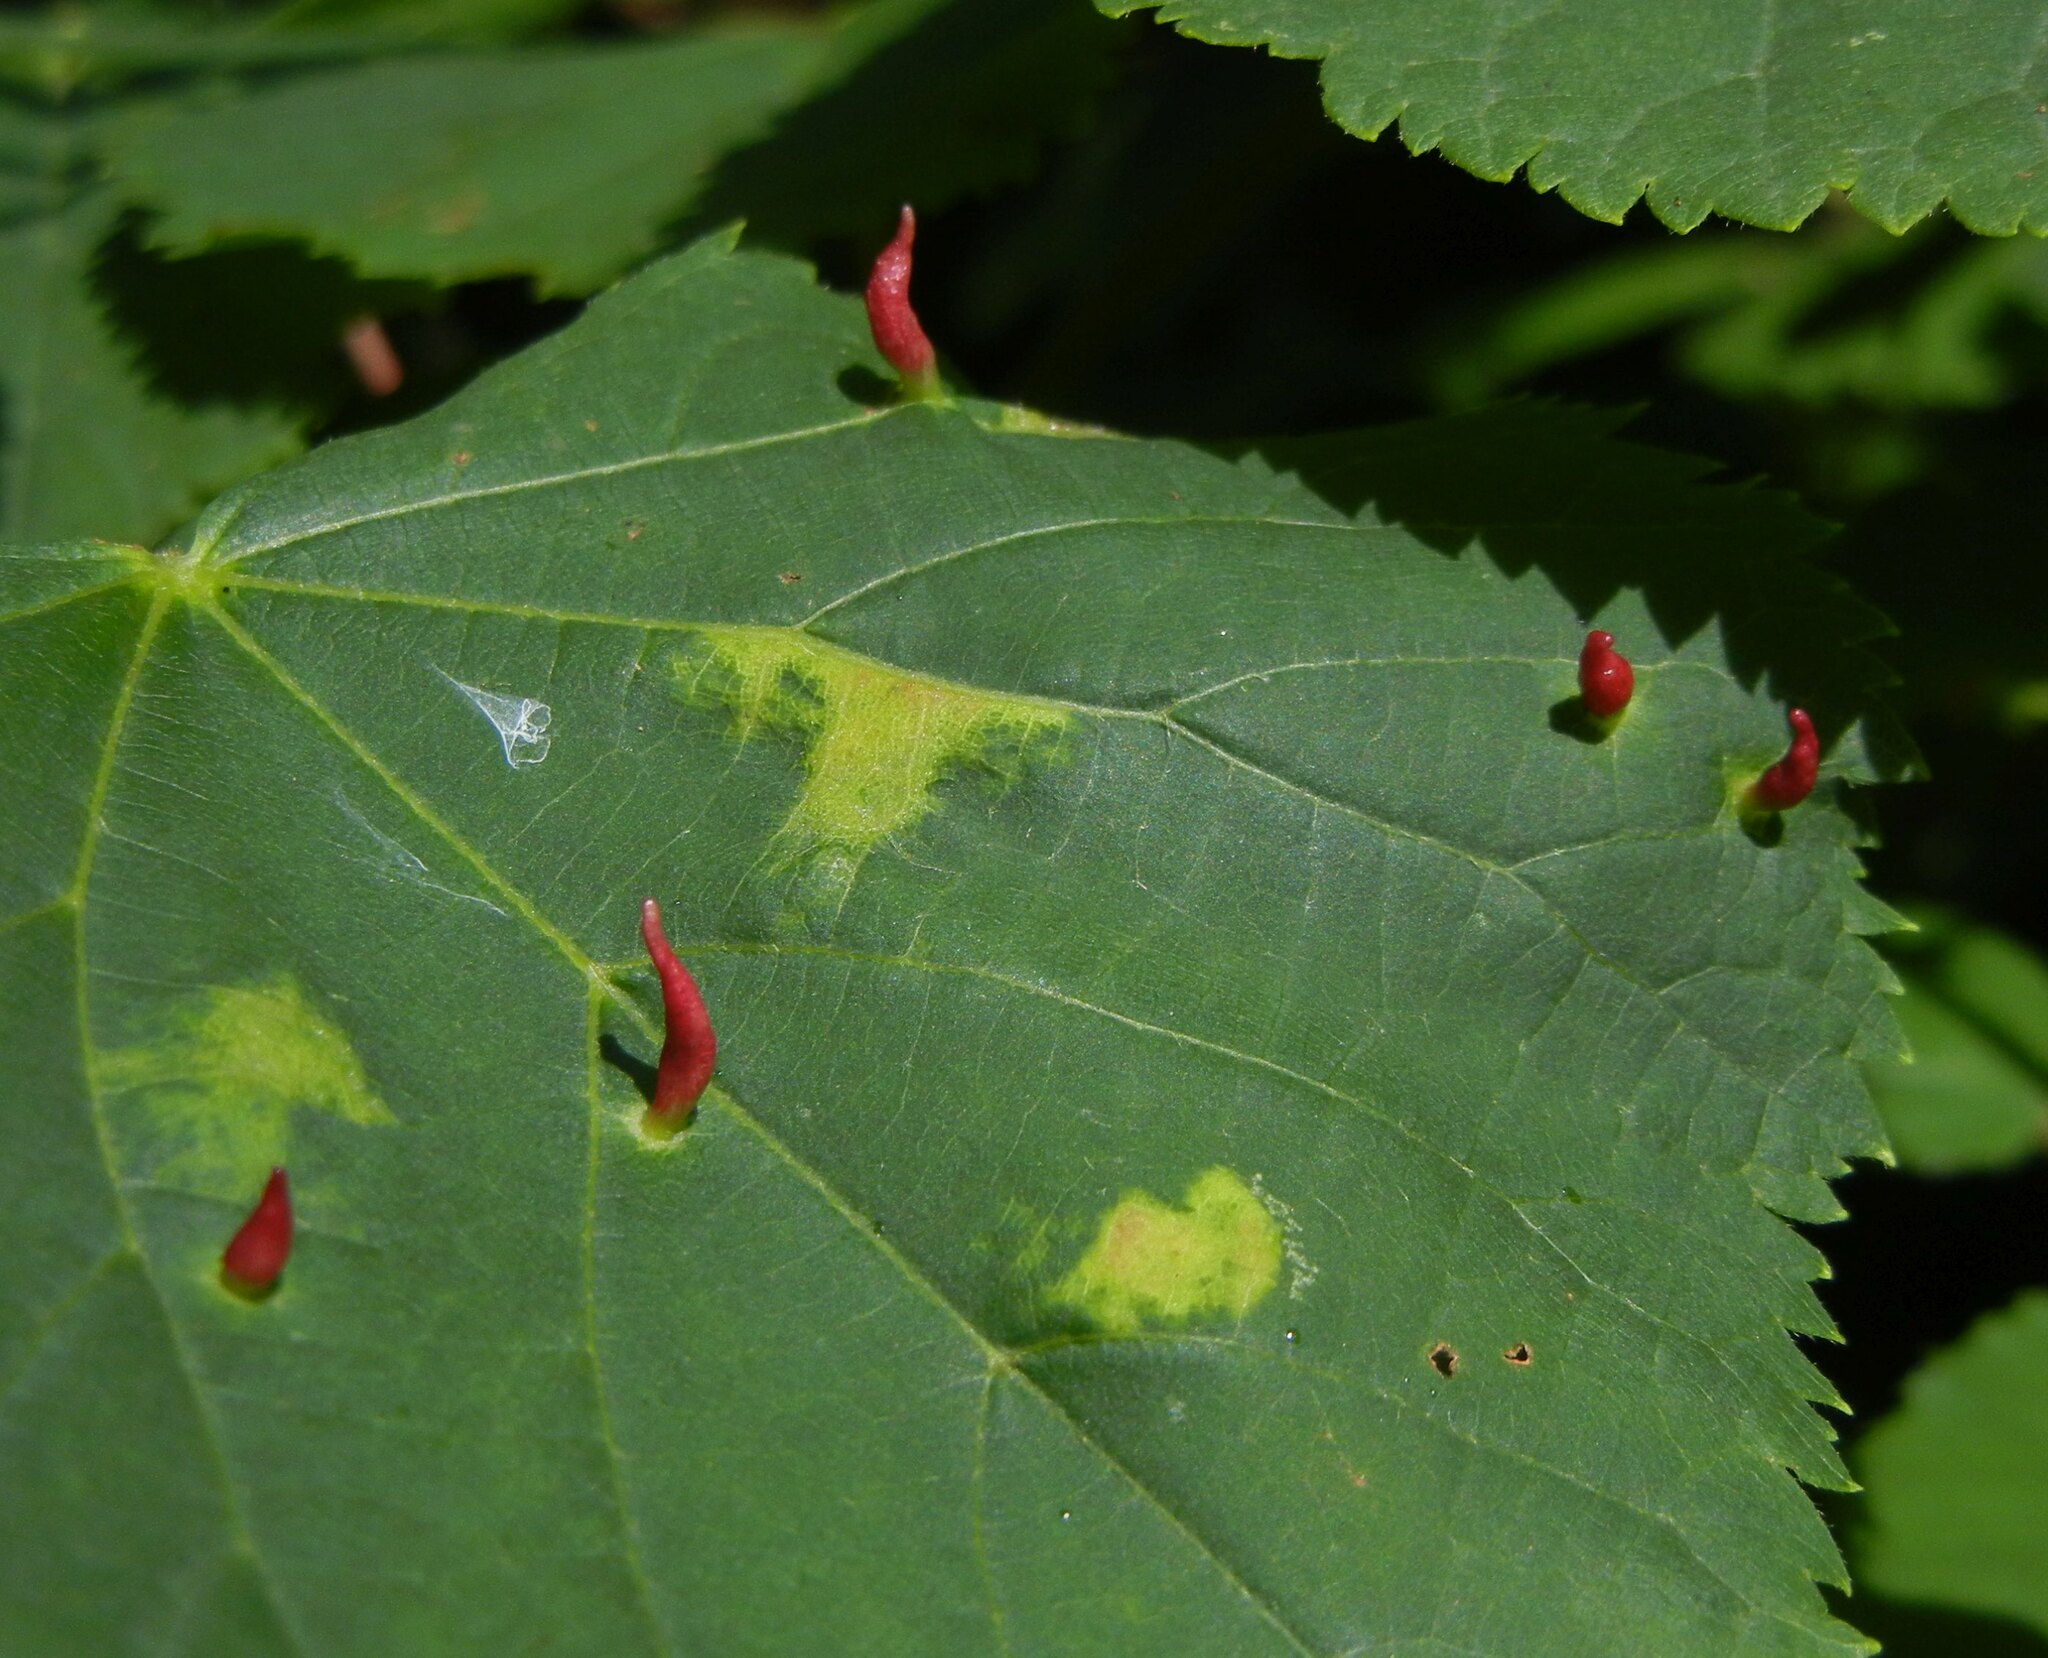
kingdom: Animalia
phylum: Arthropoda
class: Arachnida
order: Trombidiformes
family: Eriophyidae
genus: Eriophyes
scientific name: Eriophyes tiliae
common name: Red nail gall mite
